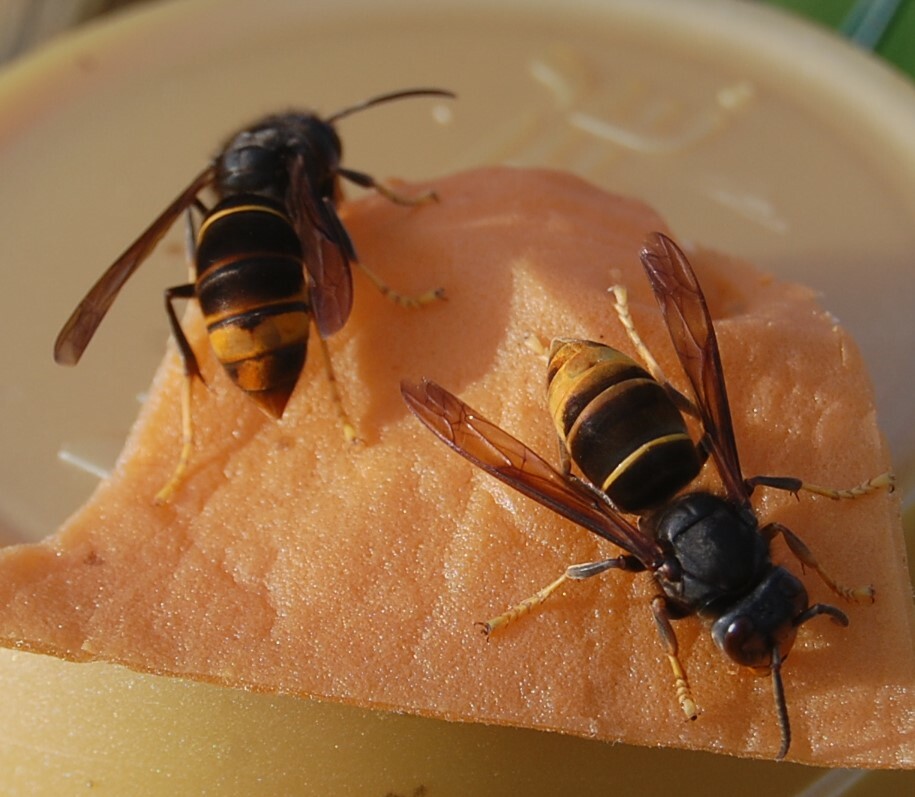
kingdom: Animalia
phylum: Arthropoda
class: Insecta
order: Hymenoptera
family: Vespidae
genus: Vespa
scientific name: Vespa velutina
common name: Asian hornet
